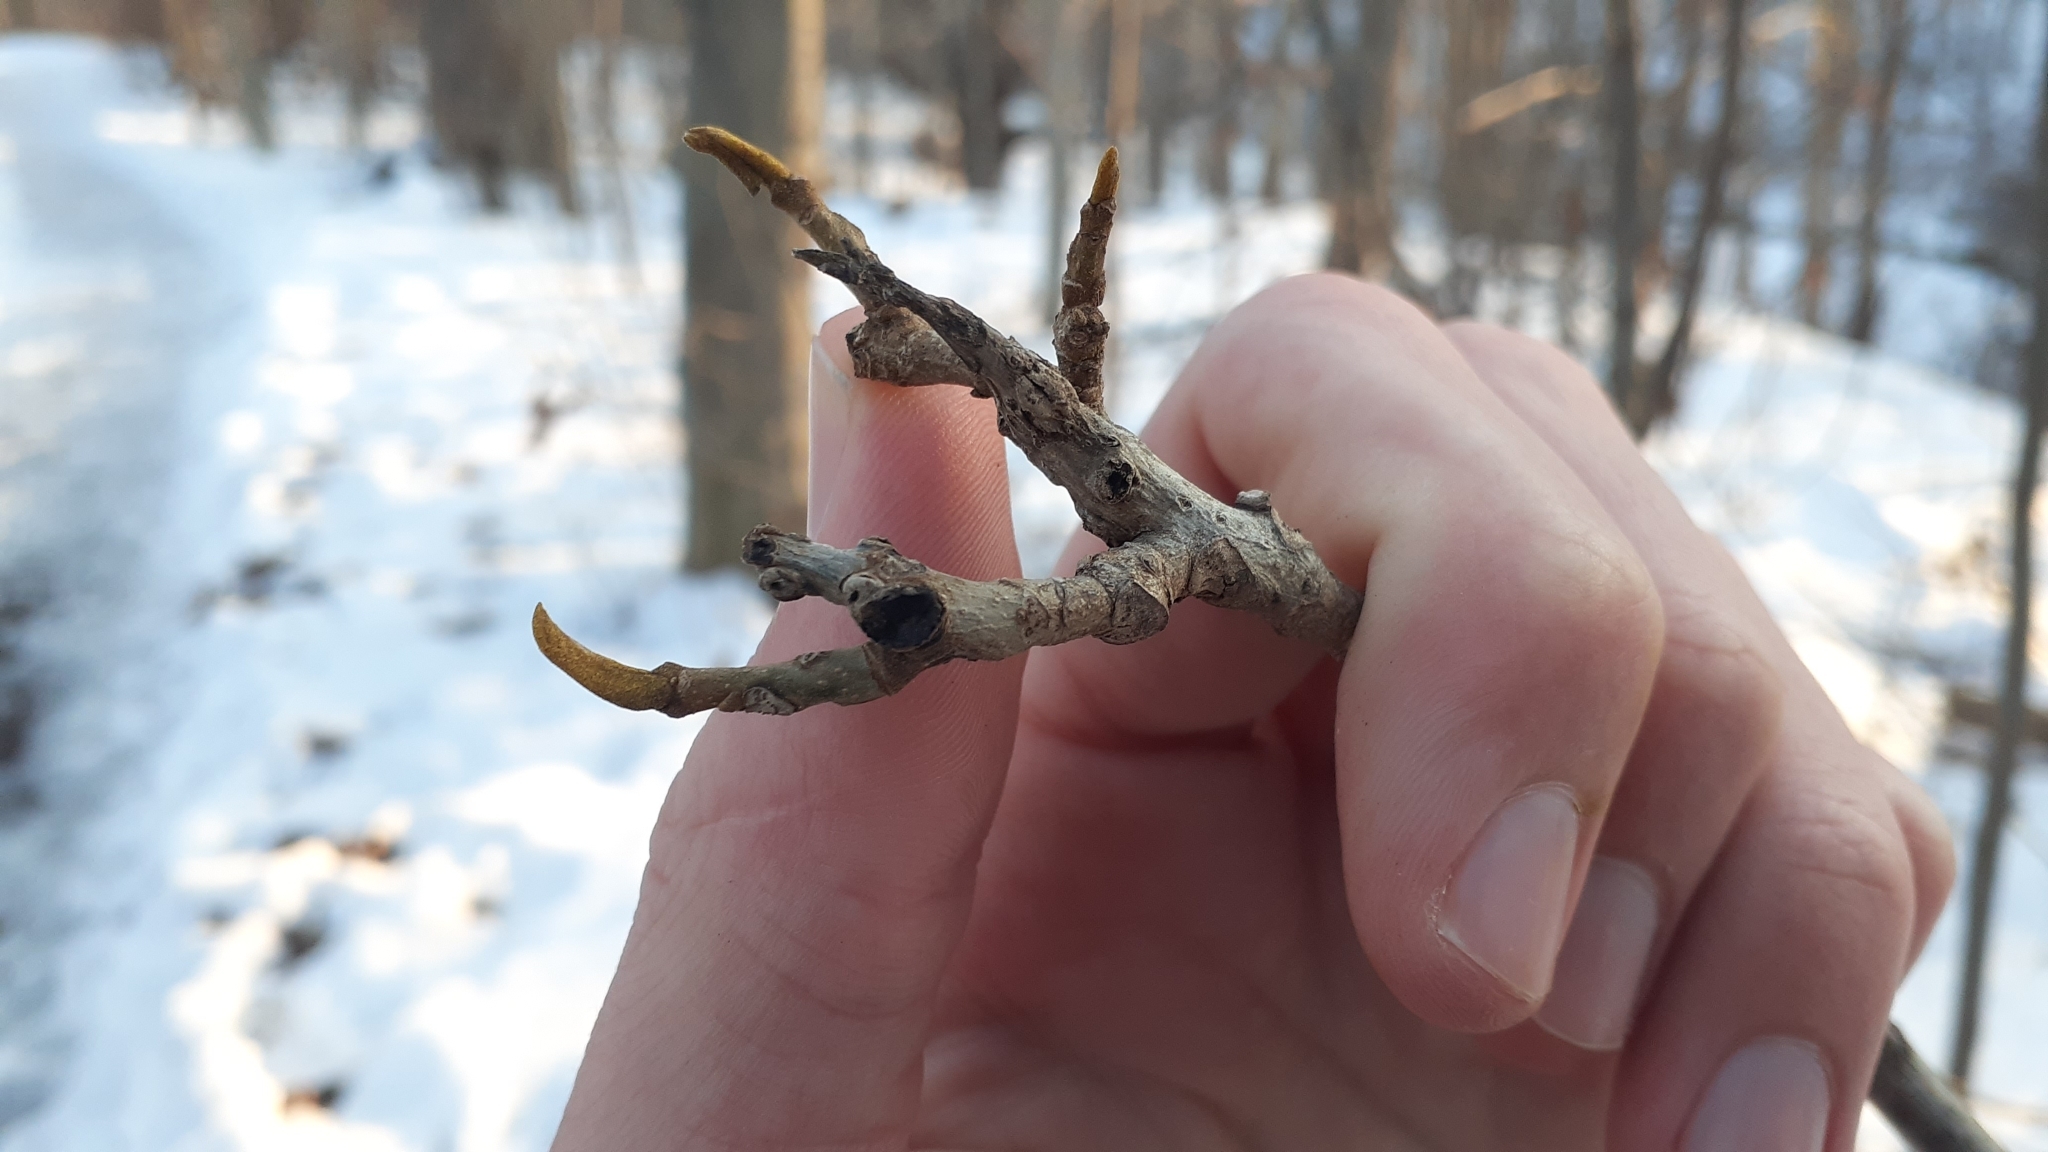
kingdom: Plantae
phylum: Tracheophyta
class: Magnoliopsida
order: Fagales
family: Juglandaceae
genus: Carya
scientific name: Carya cordiformis
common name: Bitternut hickory
